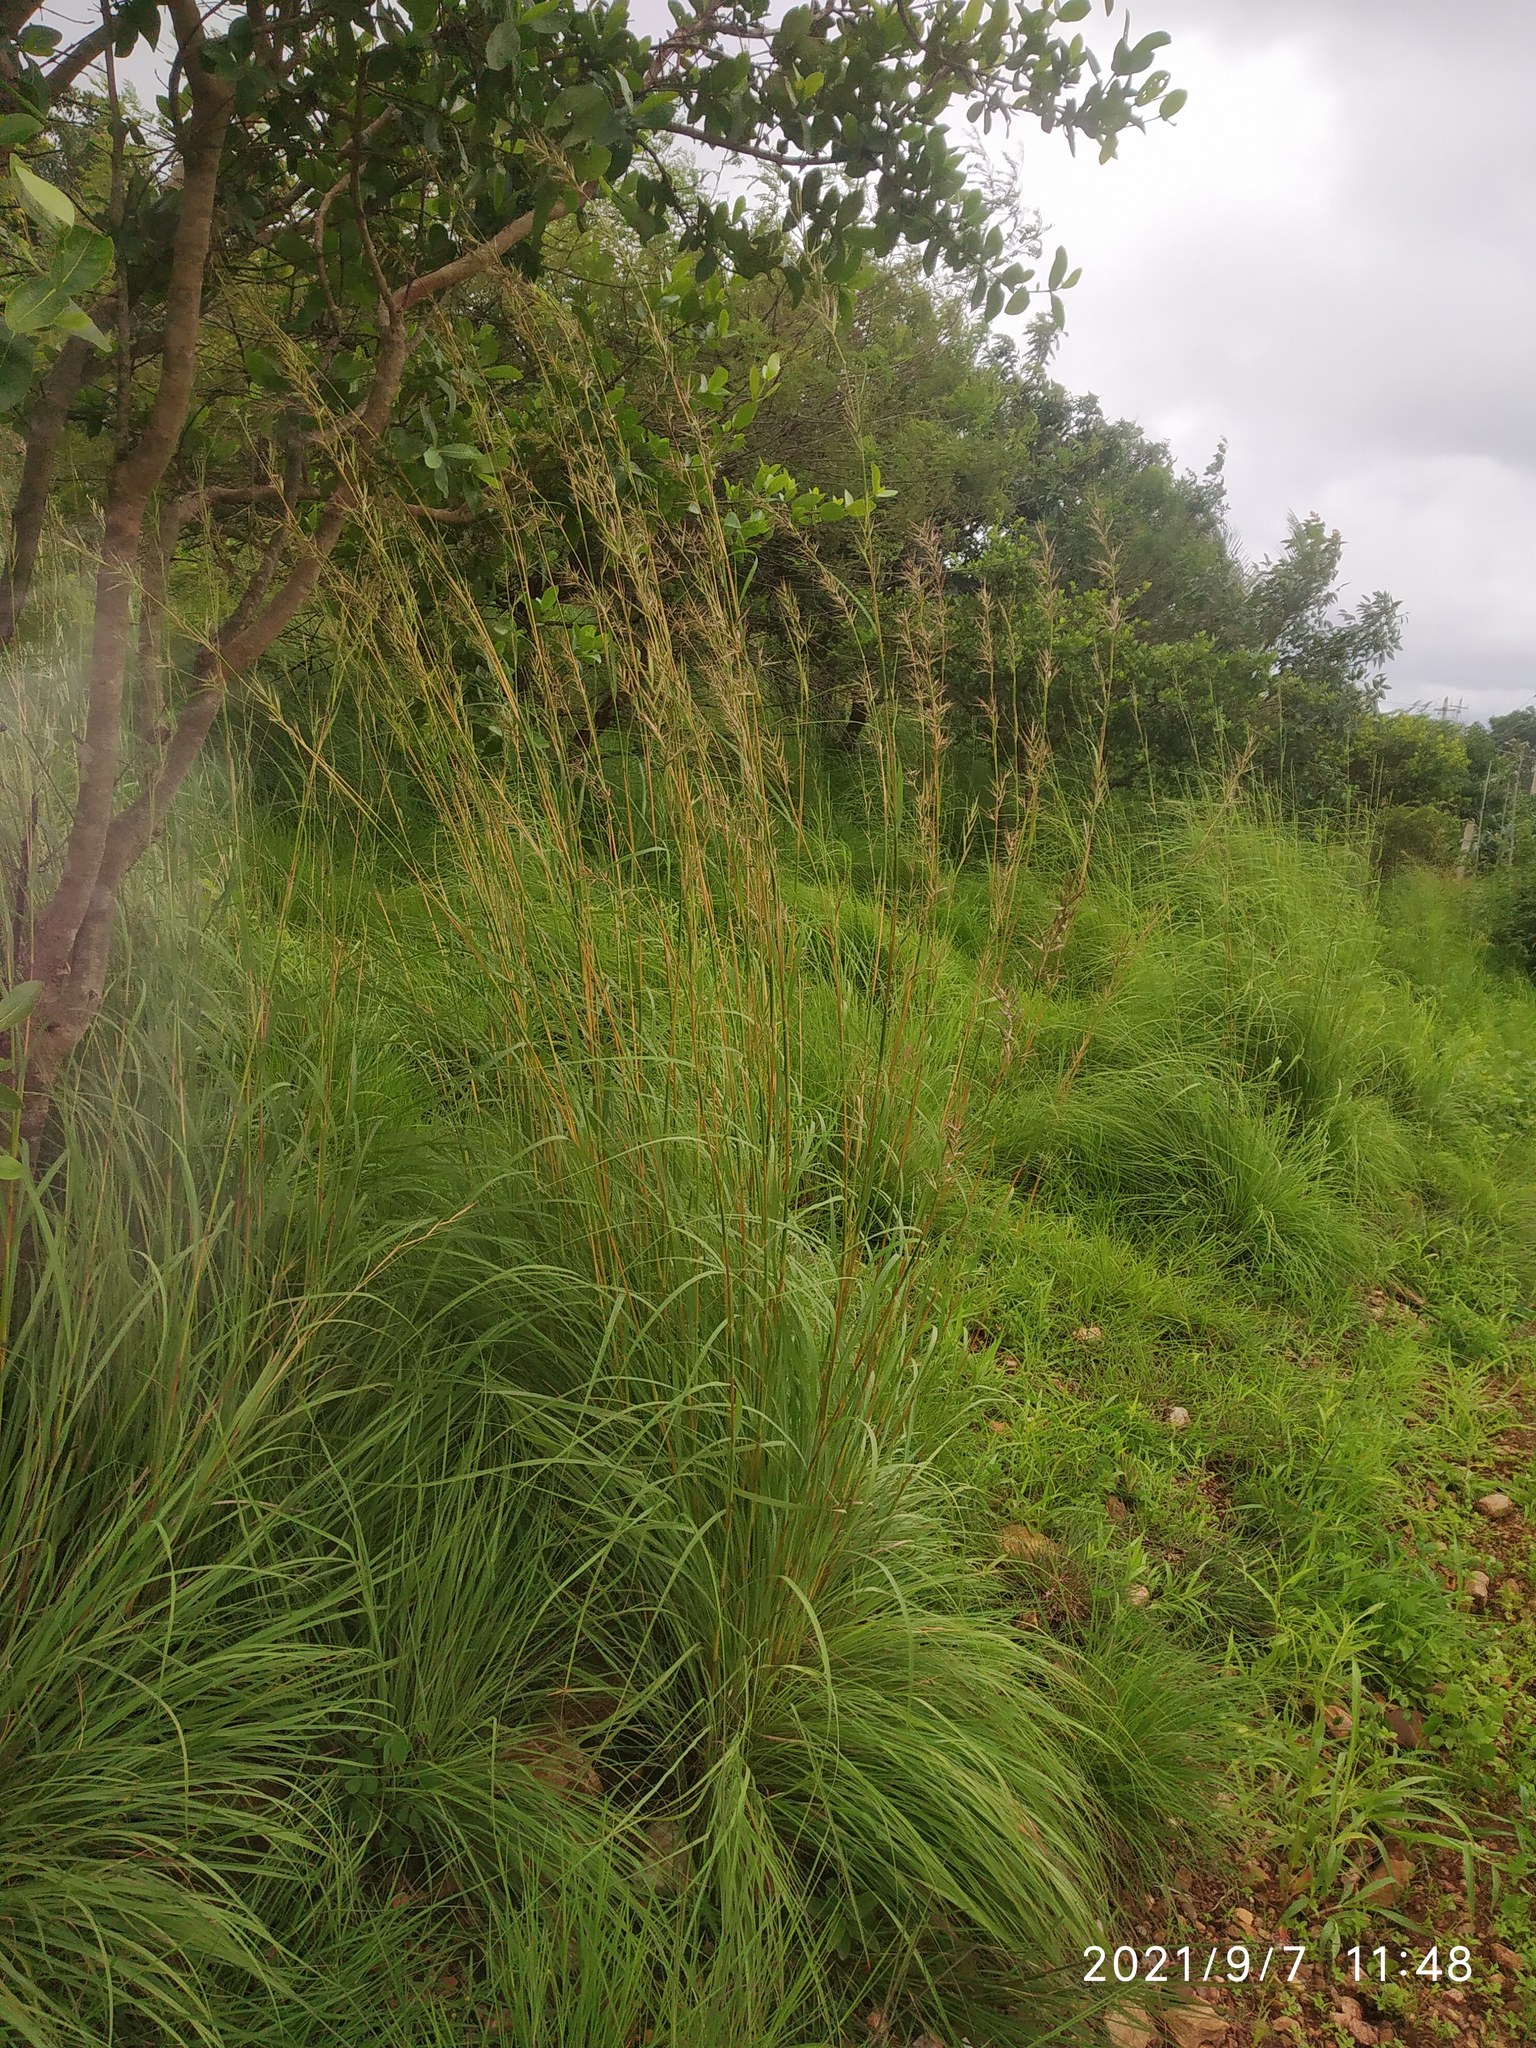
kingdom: Plantae
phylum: Tracheophyta
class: Liliopsida
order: Poales
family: Poaceae
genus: Cymbopogon
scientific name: Cymbopogon caesius
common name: Kachi grass
